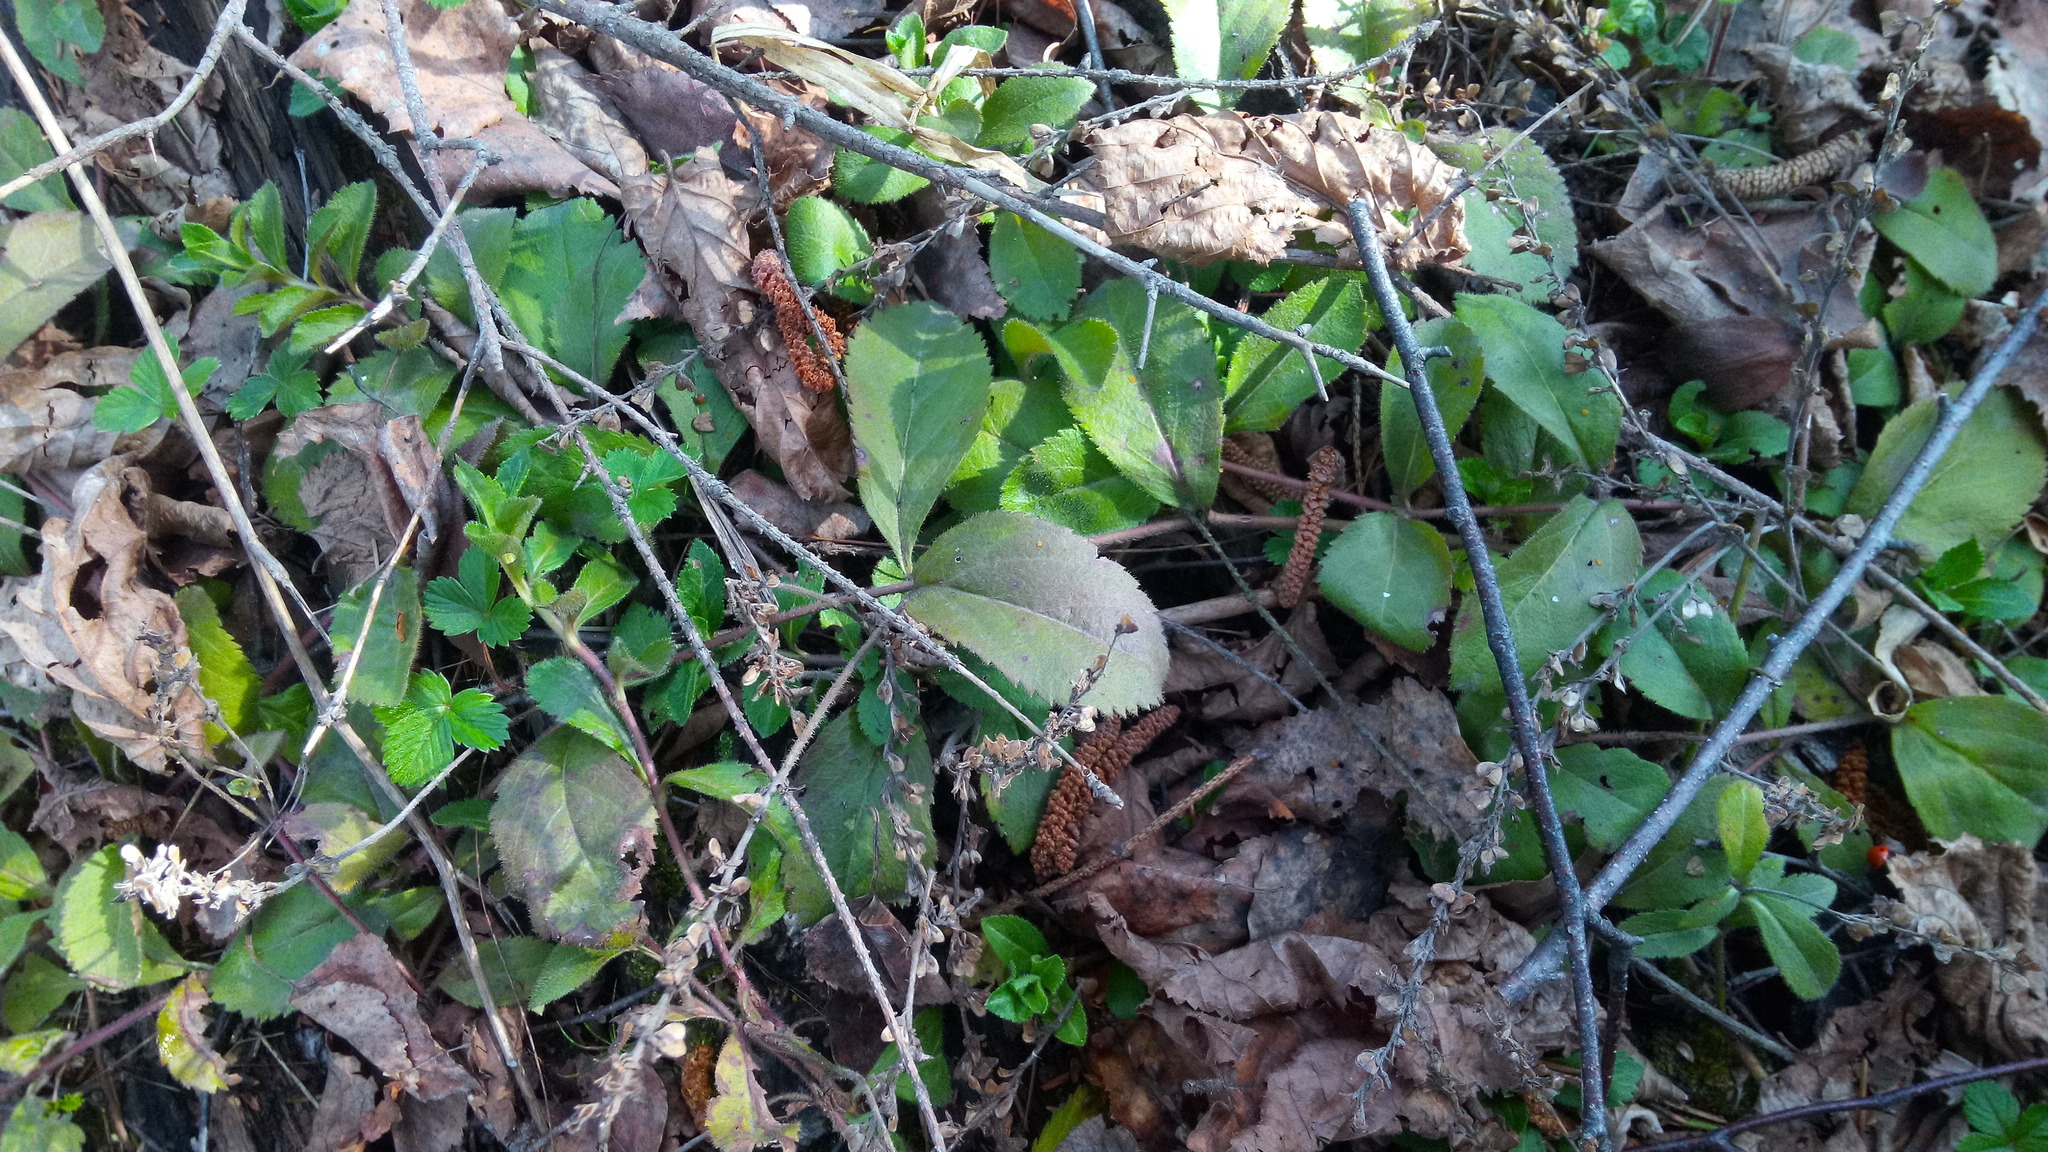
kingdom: Plantae
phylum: Tracheophyta
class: Magnoliopsida
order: Lamiales
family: Plantaginaceae
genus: Veronica
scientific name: Veronica officinalis
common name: Common speedwell
